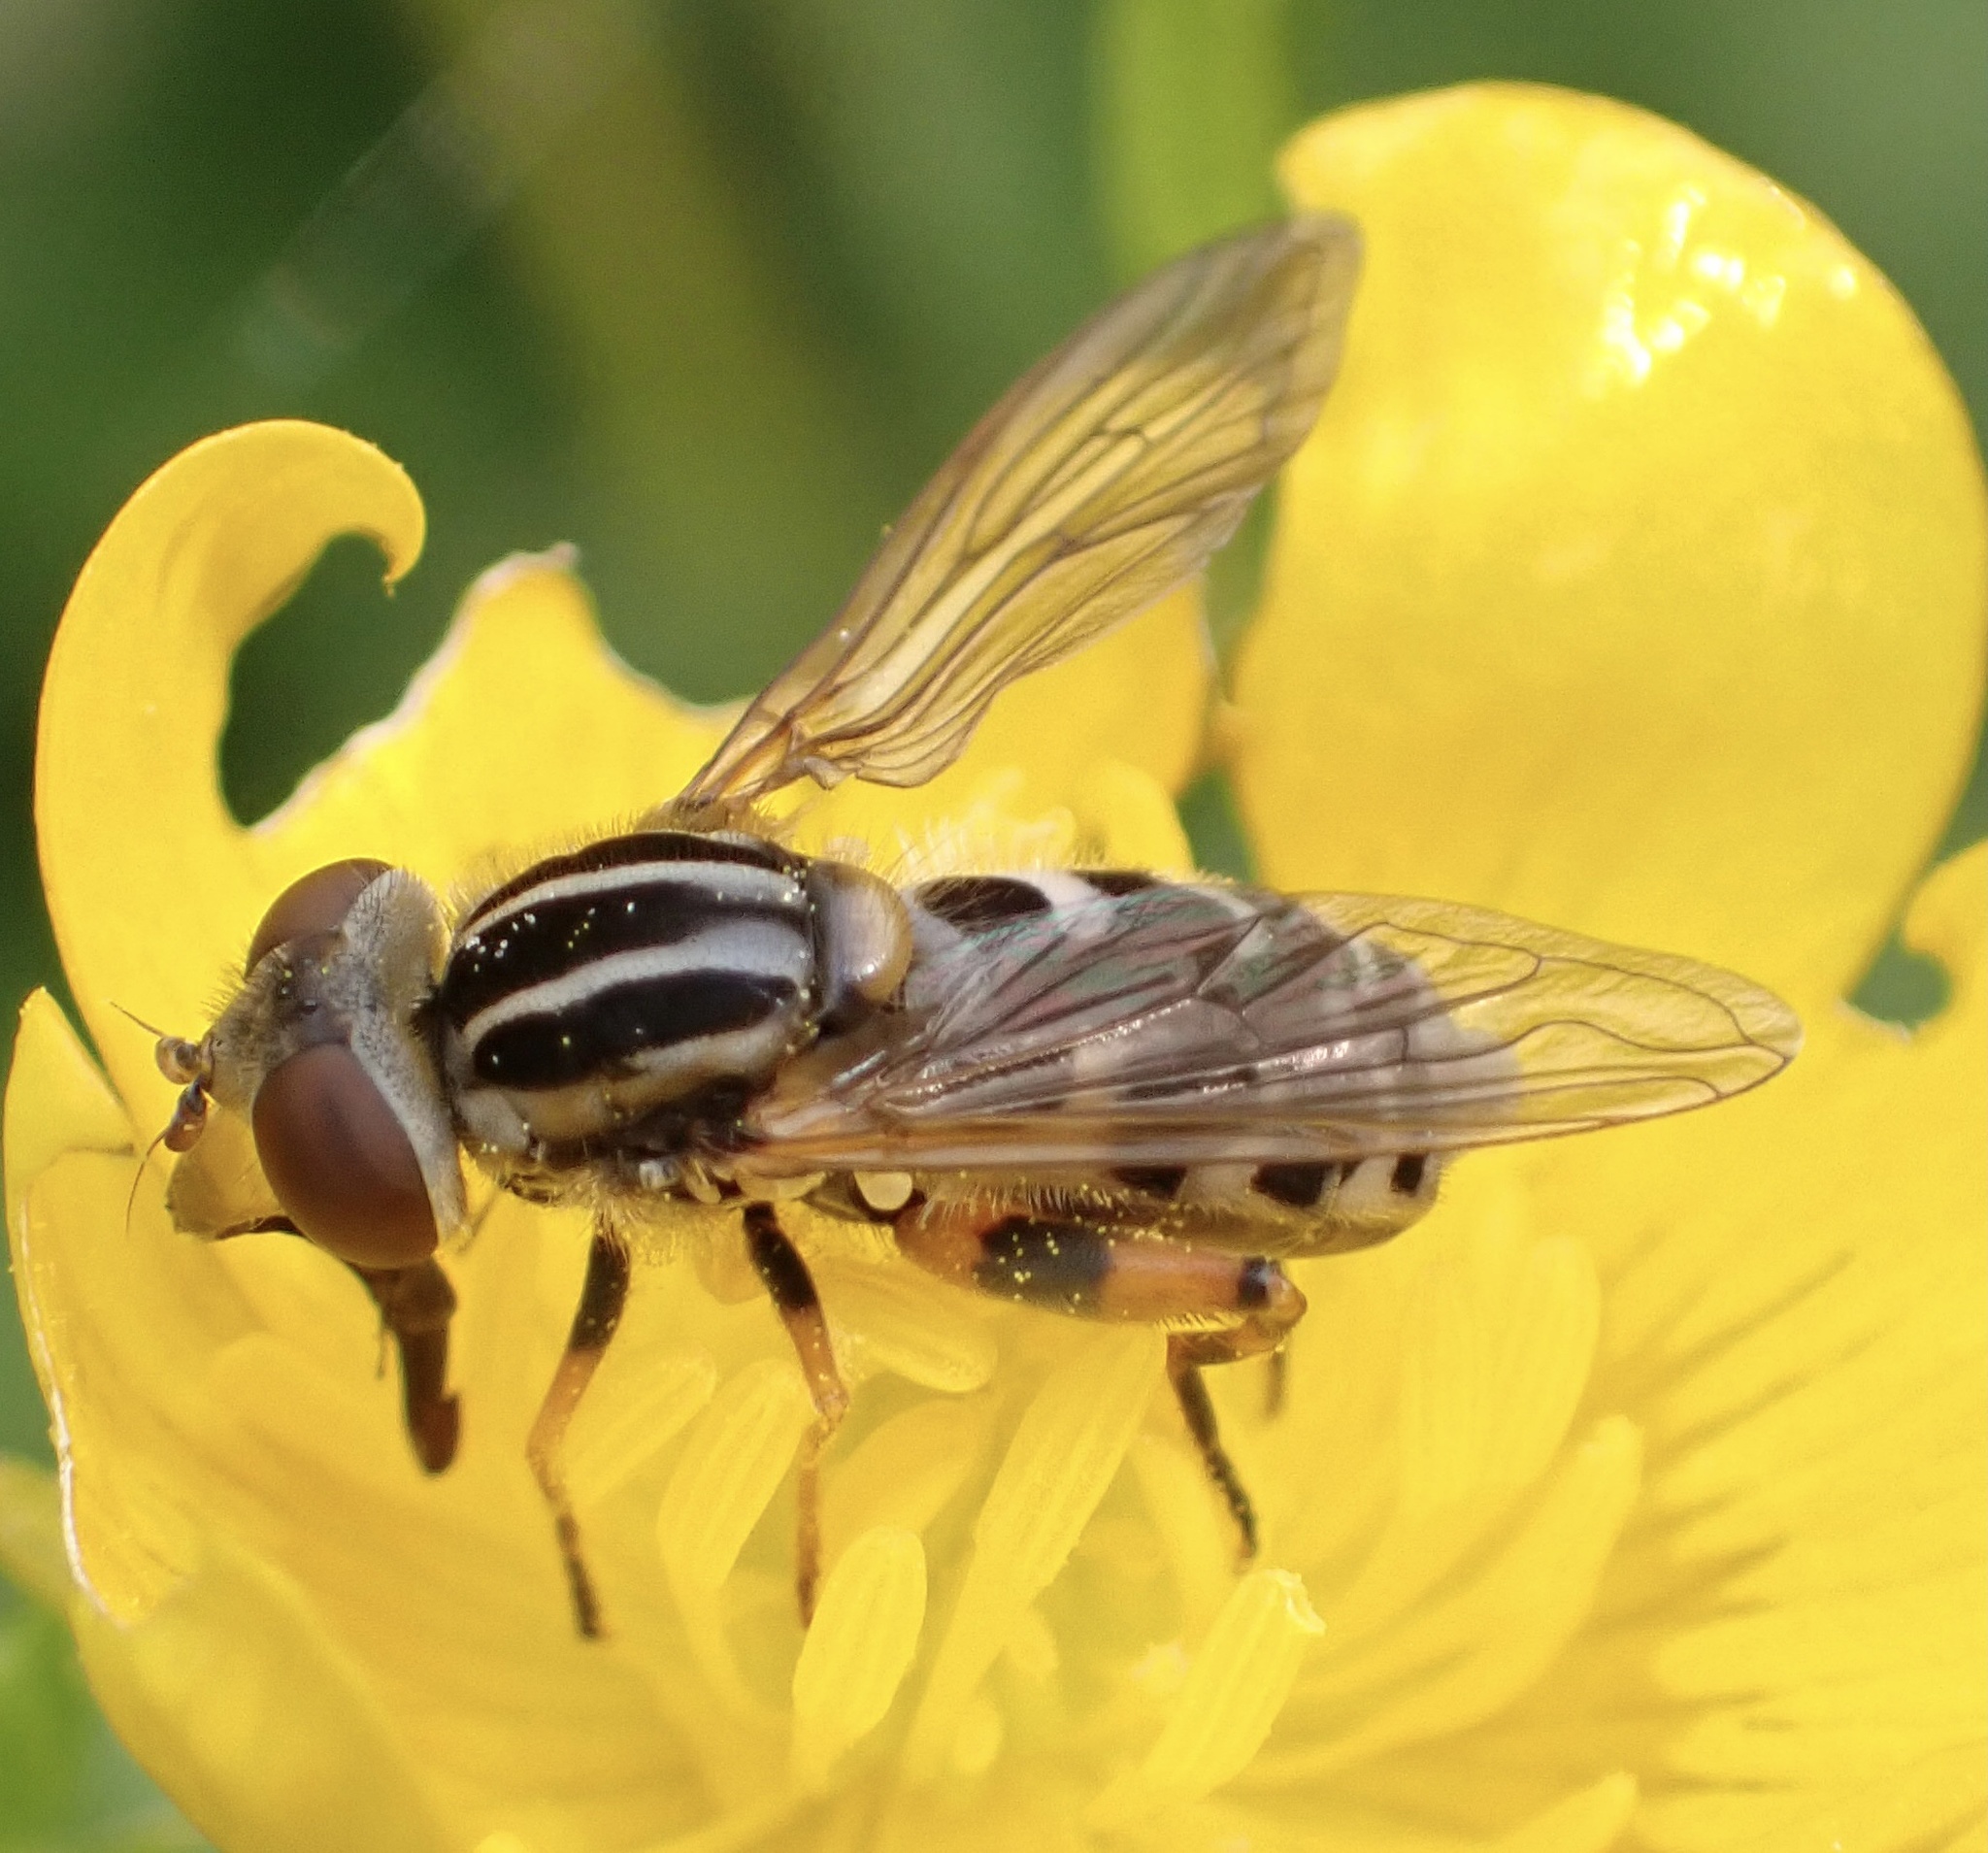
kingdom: Animalia
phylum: Arthropoda
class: Insecta
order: Diptera
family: Syrphidae
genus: Eurimyia
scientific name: Eurimyia lineatus
